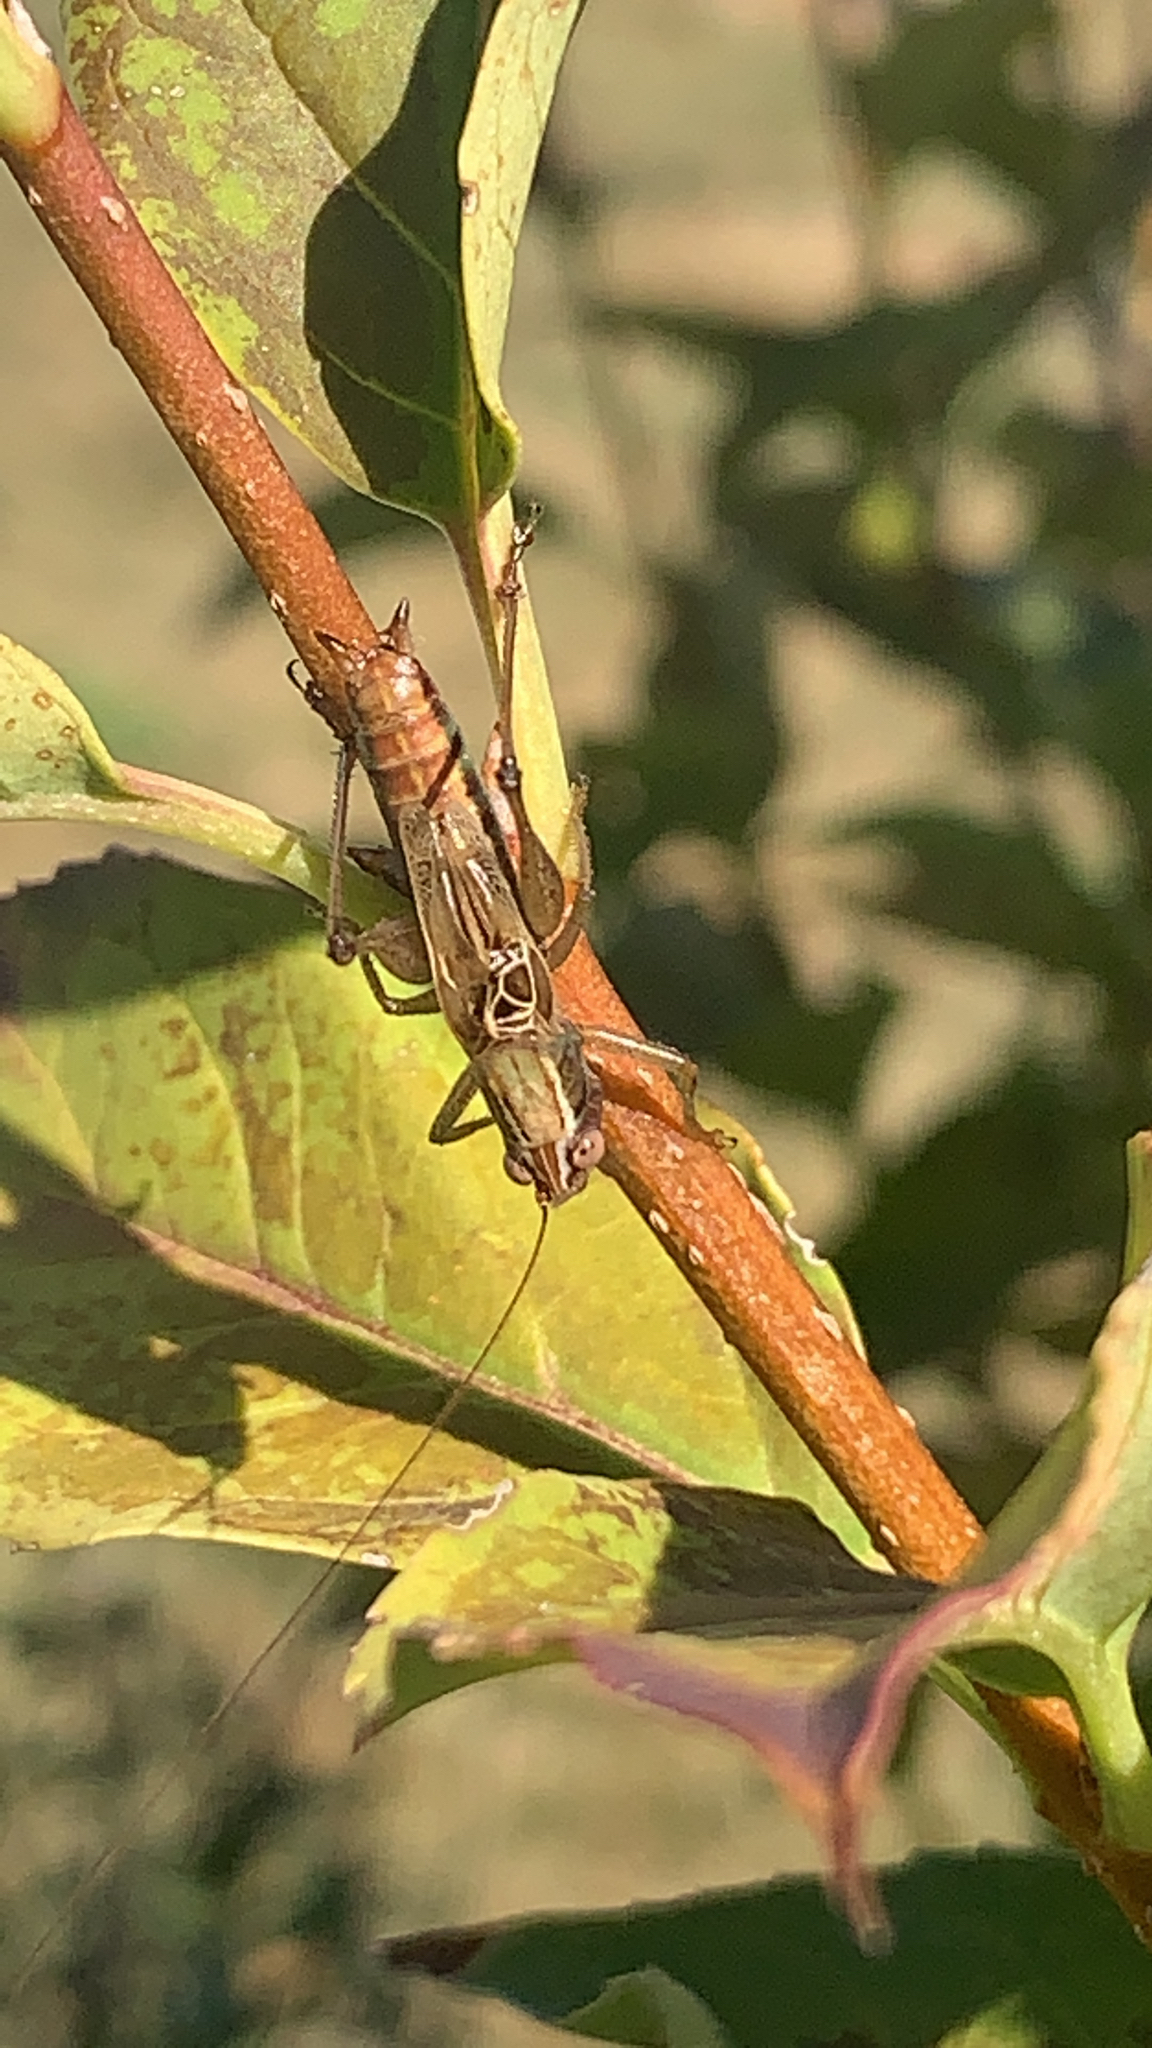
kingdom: Animalia
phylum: Arthropoda
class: Insecta
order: Orthoptera
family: Tettigoniidae
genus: Conocephalus
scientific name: Conocephalus nemoralis
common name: Woodland meadow katydid
